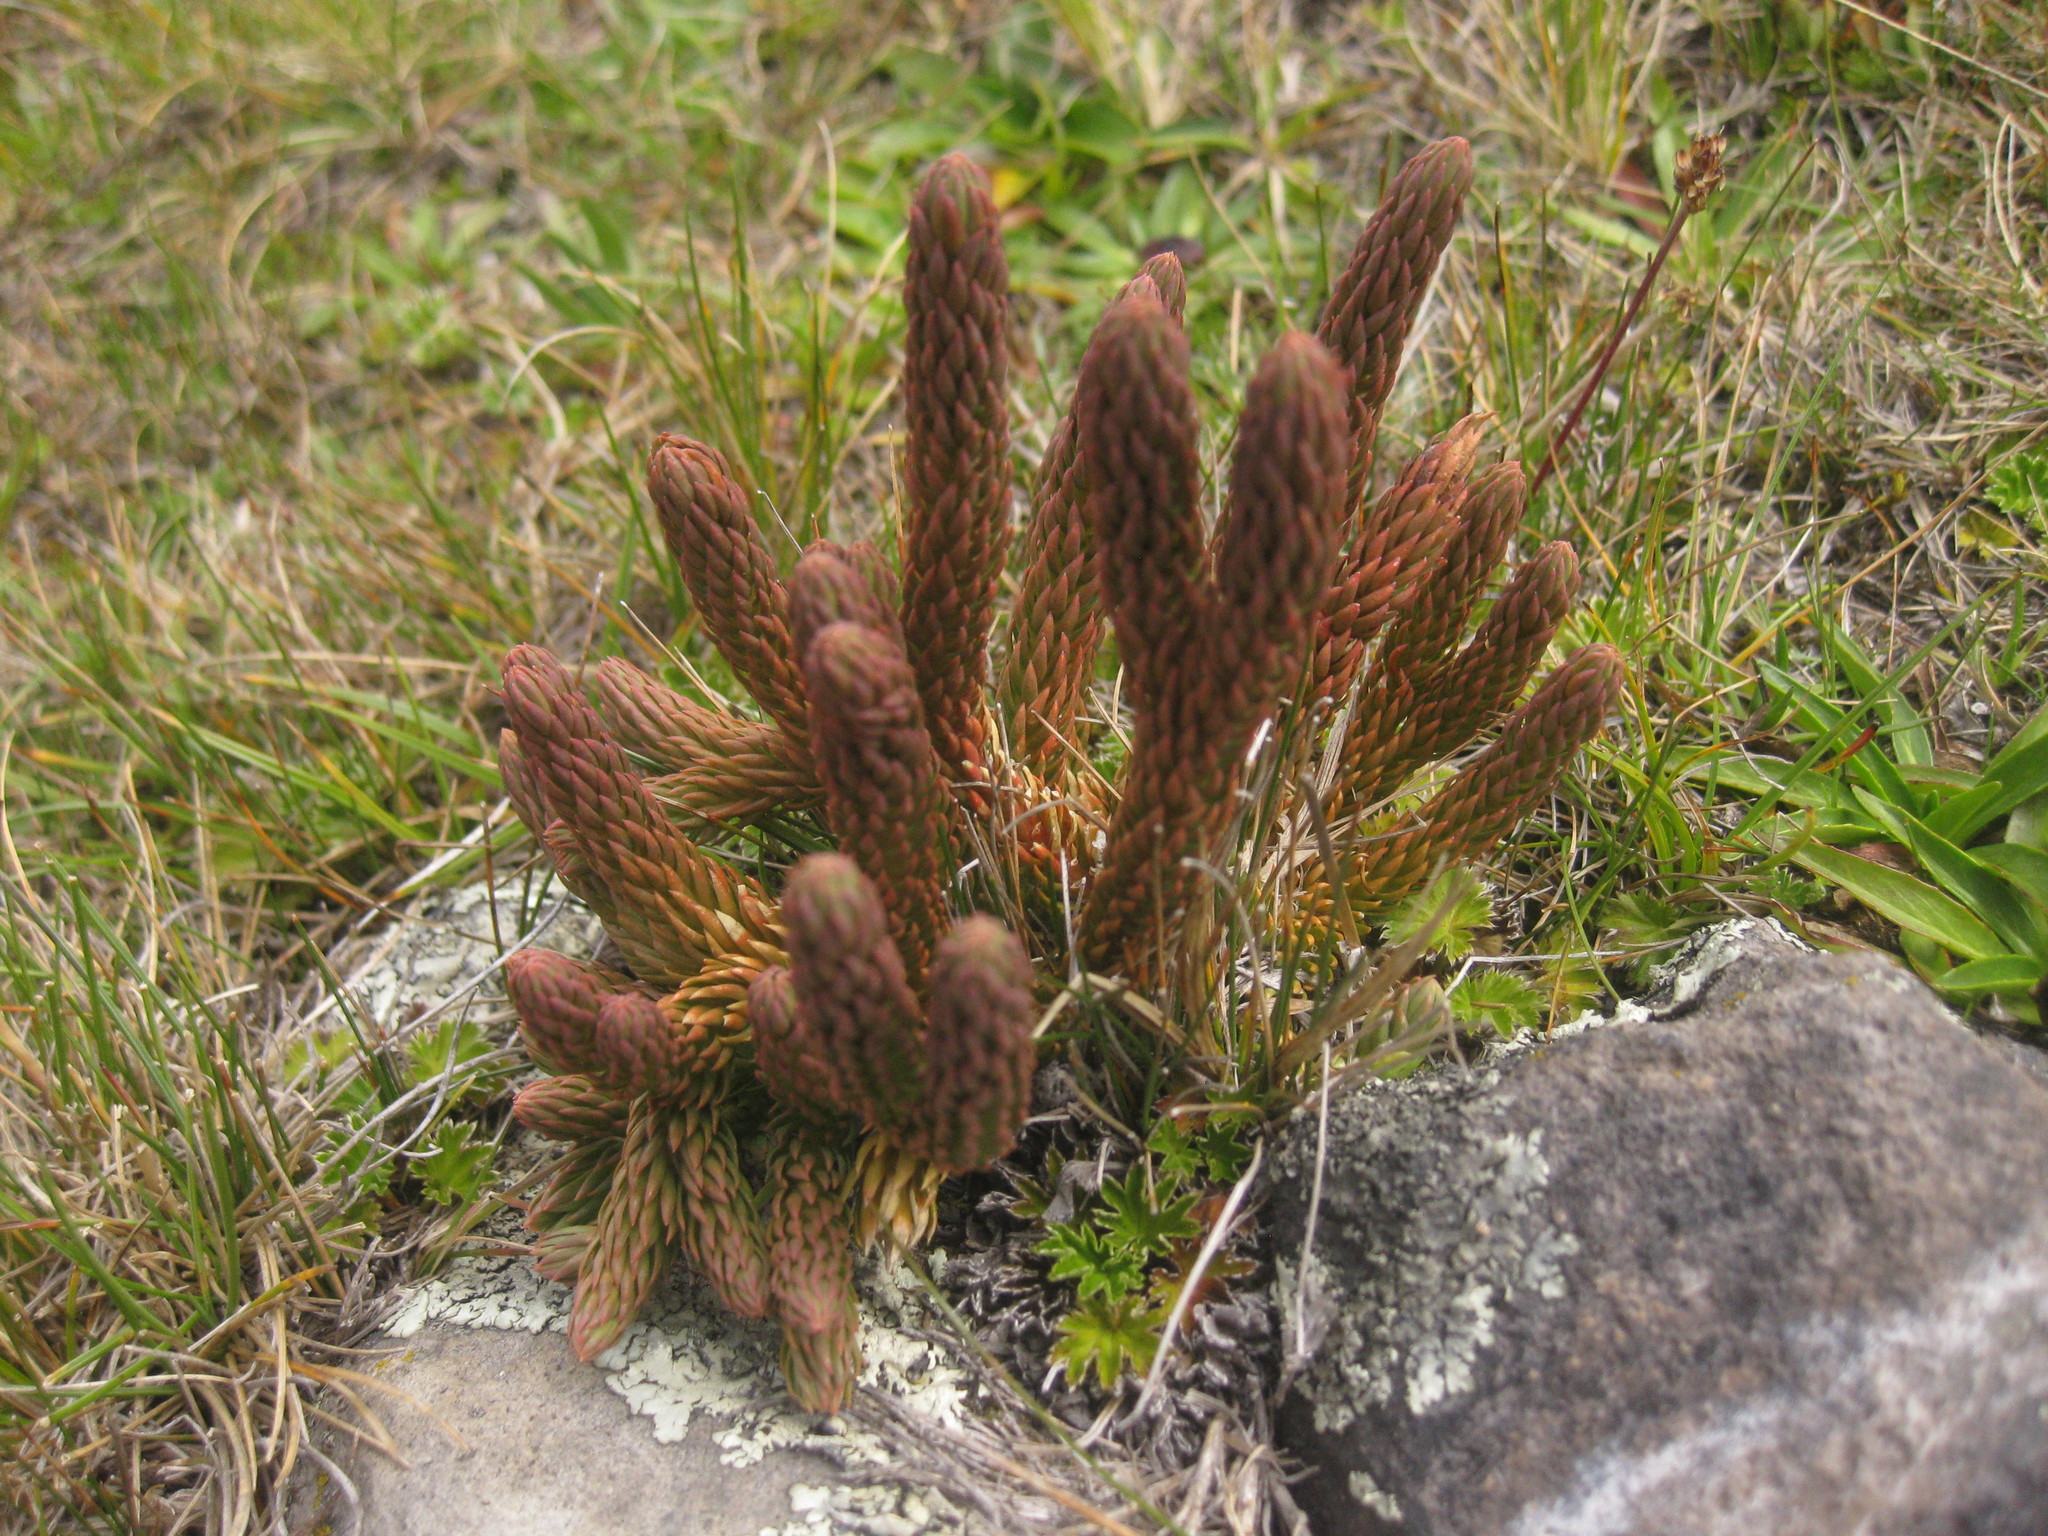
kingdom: Plantae
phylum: Tracheophyta
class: Lycopodiopsida
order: Lycopodiales
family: Lycopodiaceae
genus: Phlegmariurus
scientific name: Phlegmariurus crassus
